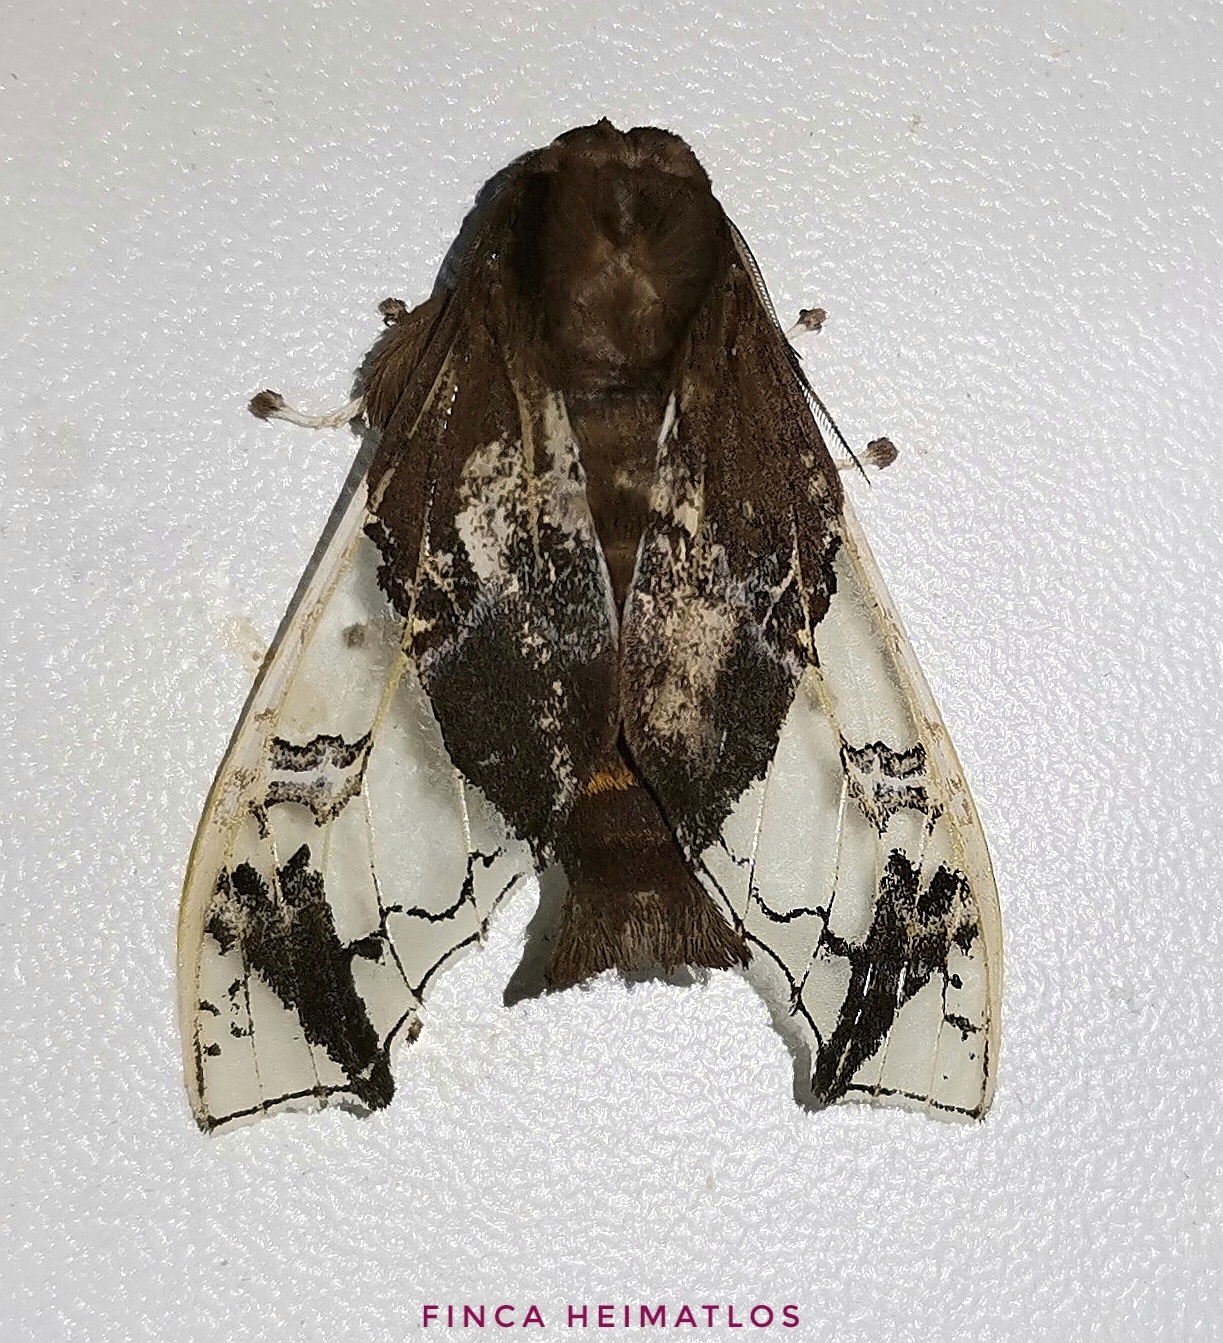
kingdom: Animalia
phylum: Arthropoda
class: Insecta
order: Lepidoptera
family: Erebidae
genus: Parathyris
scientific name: Parathyris semivitrea
